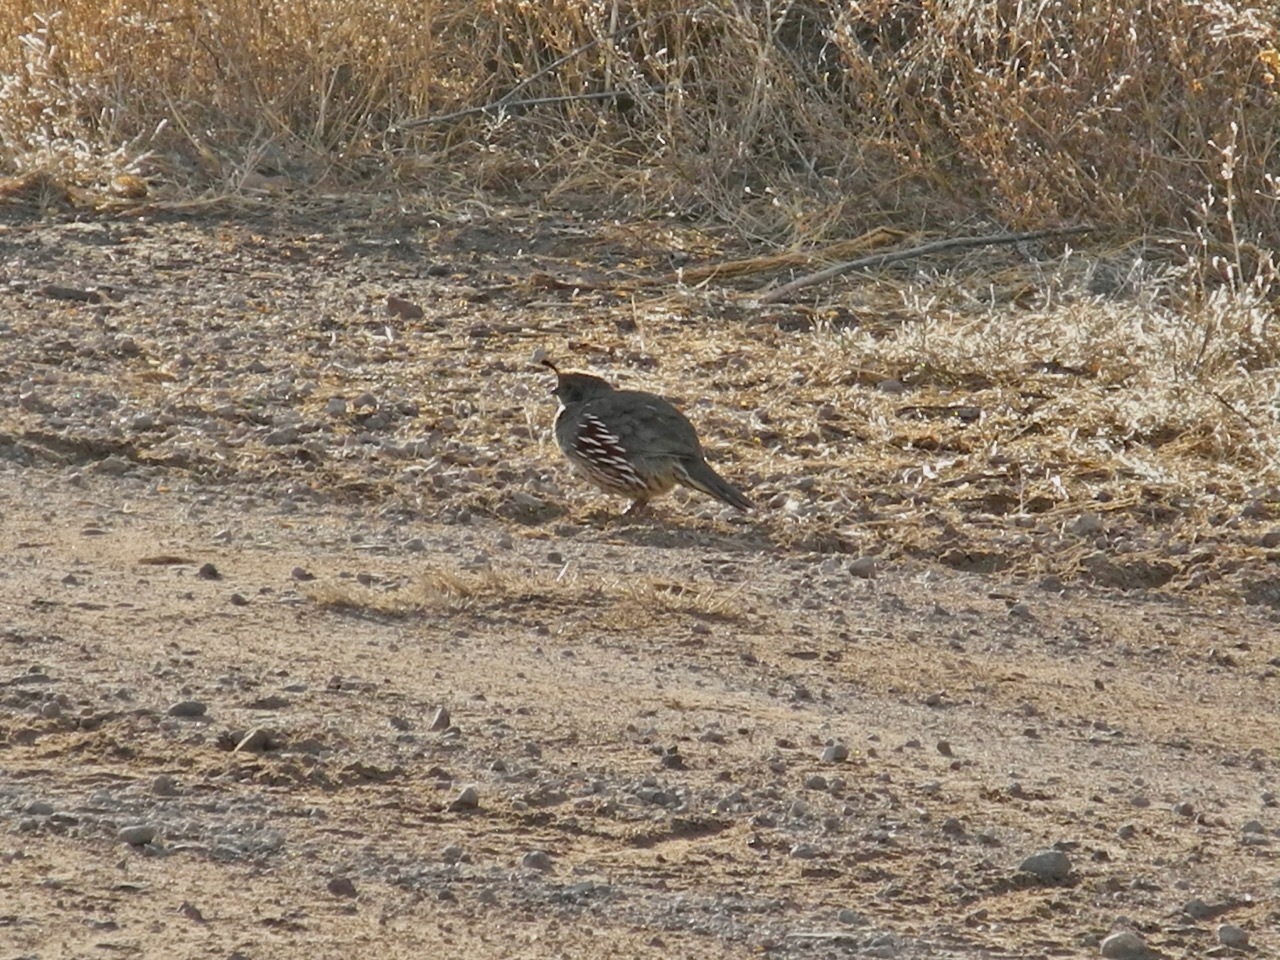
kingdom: Animalia
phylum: Chordata
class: Aves
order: Galliformes
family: Odontophoridae
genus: Callipepla
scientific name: Callipepla gambelii
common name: Gambel's quail
